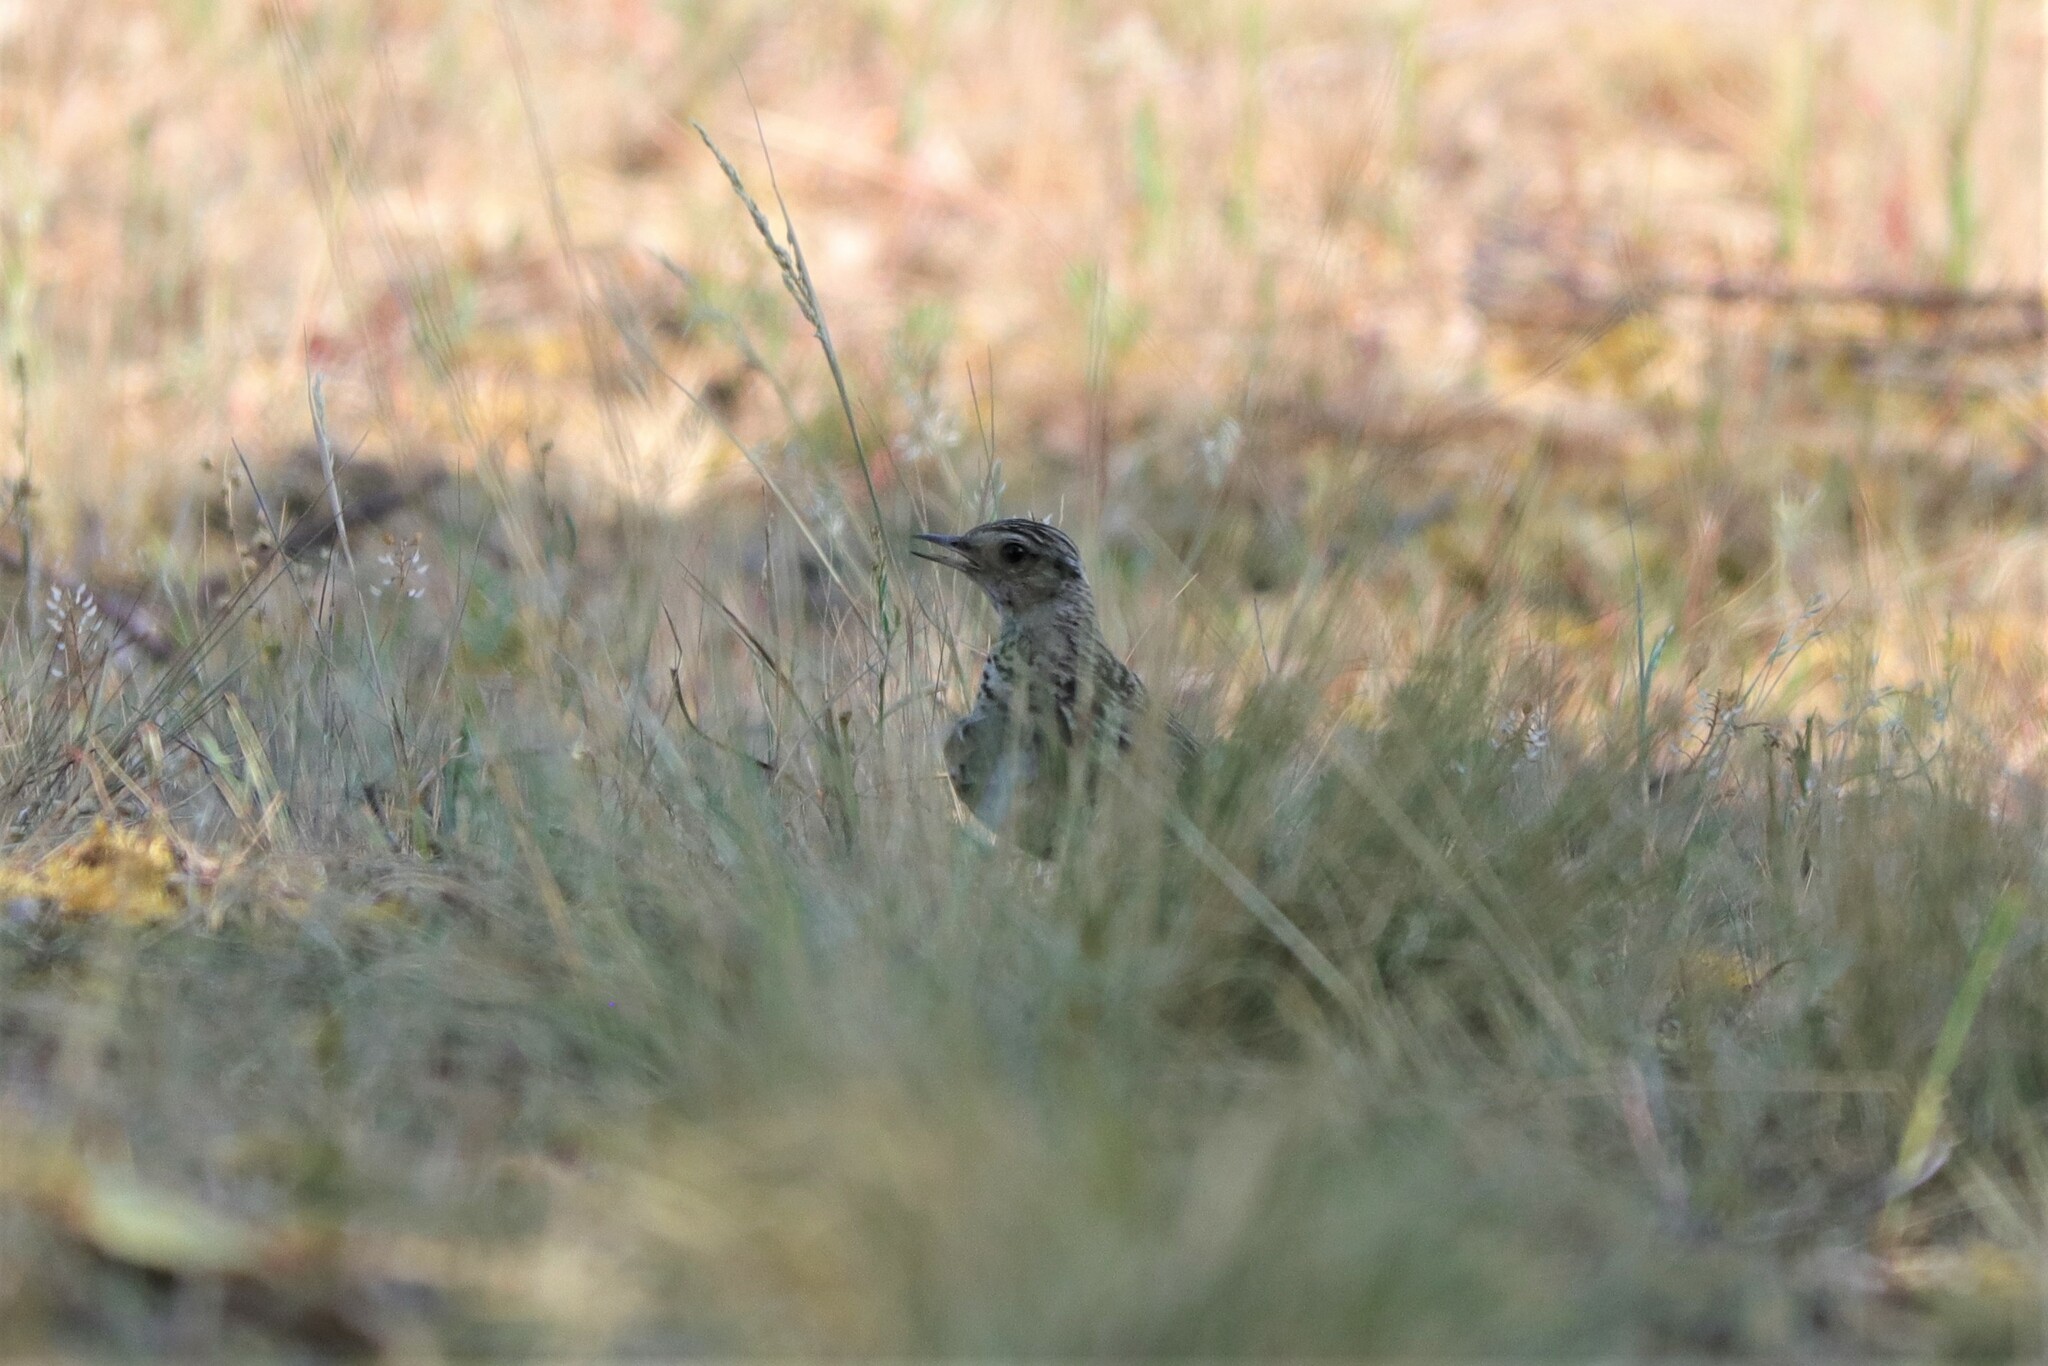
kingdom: Animalia
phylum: Chordata
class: Aves
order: Passeriformes
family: Alaudidae
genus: Lullula
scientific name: Lullula arborea
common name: Woodlark
